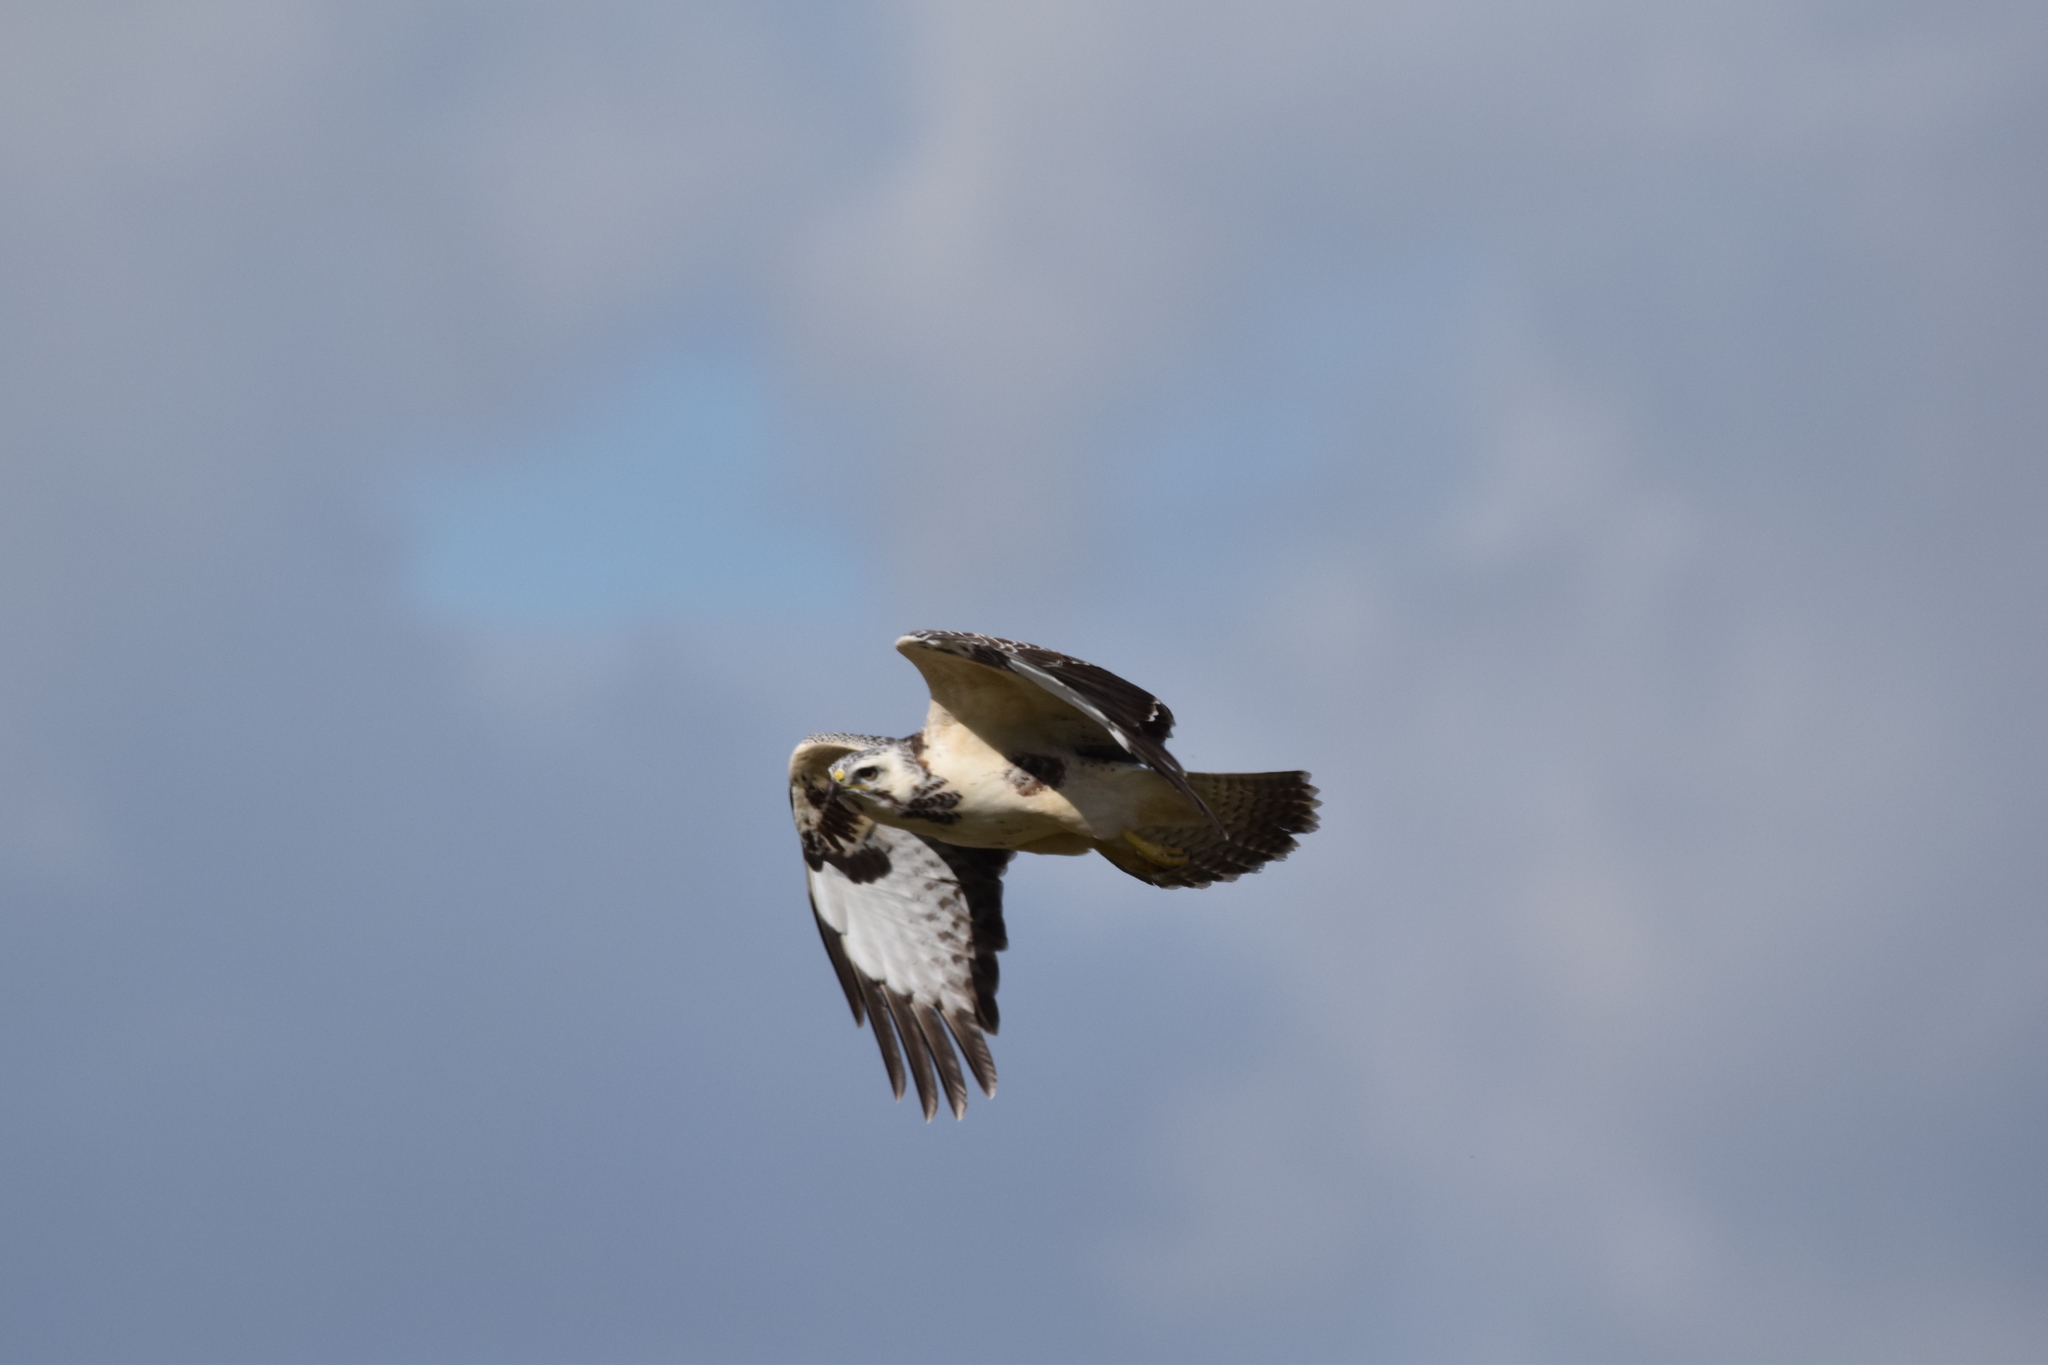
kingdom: Animalia
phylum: Chordata
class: Aves
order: Accipitriformes
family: Accipitridae
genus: Buteo
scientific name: Buteo buteo
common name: Common buzzard
